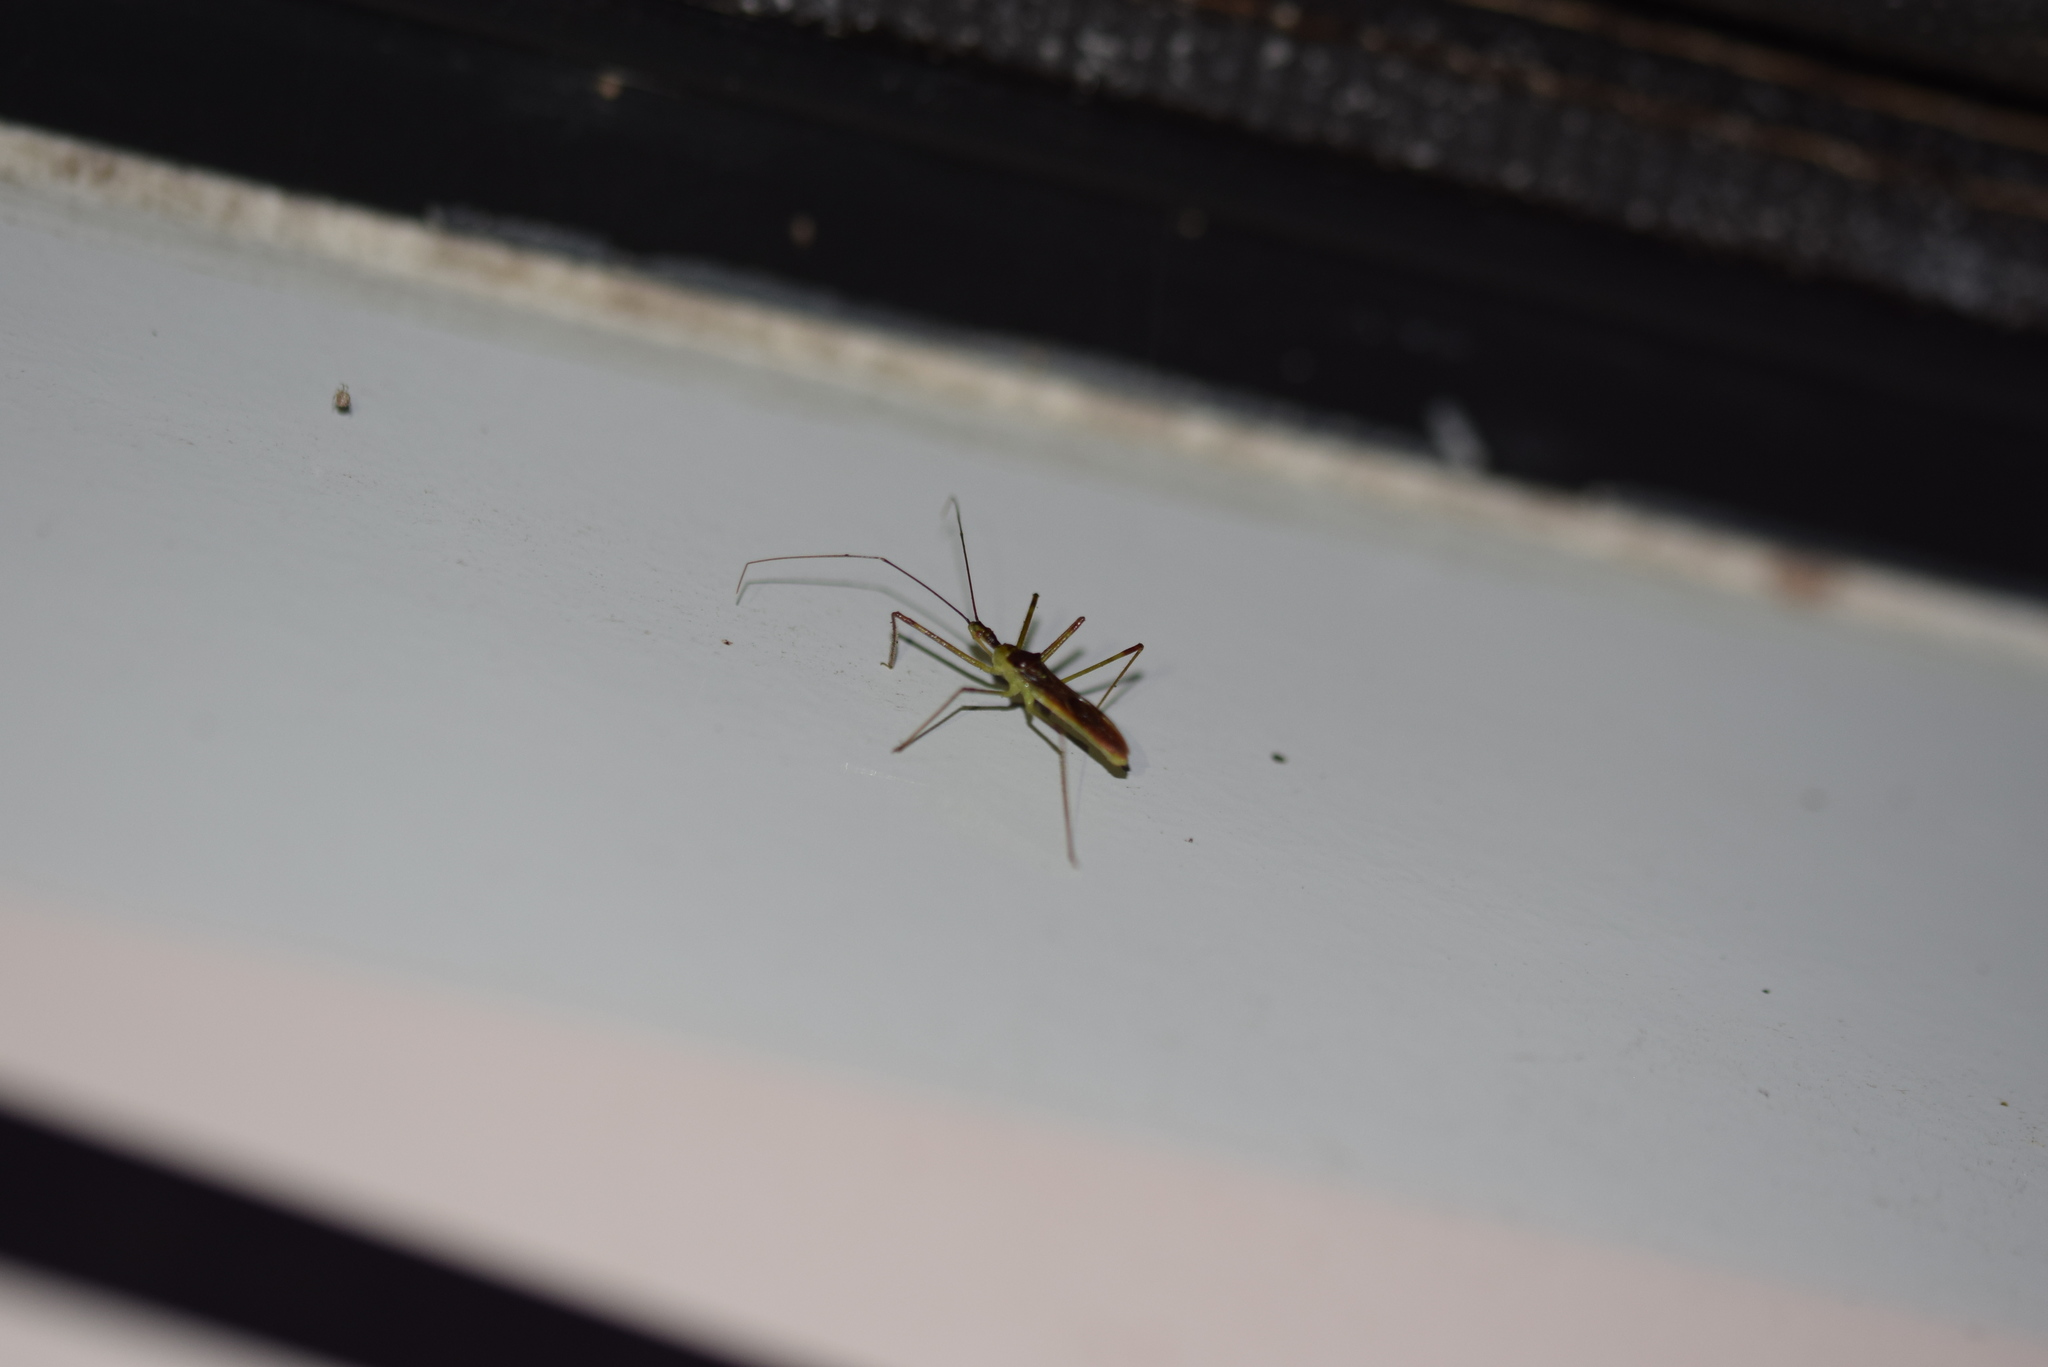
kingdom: Animalia
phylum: Arthropoda
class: Insecta
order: Hemiptera
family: Reduviidae
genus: Zelus
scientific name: Zelus renardii
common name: Assassin bug
